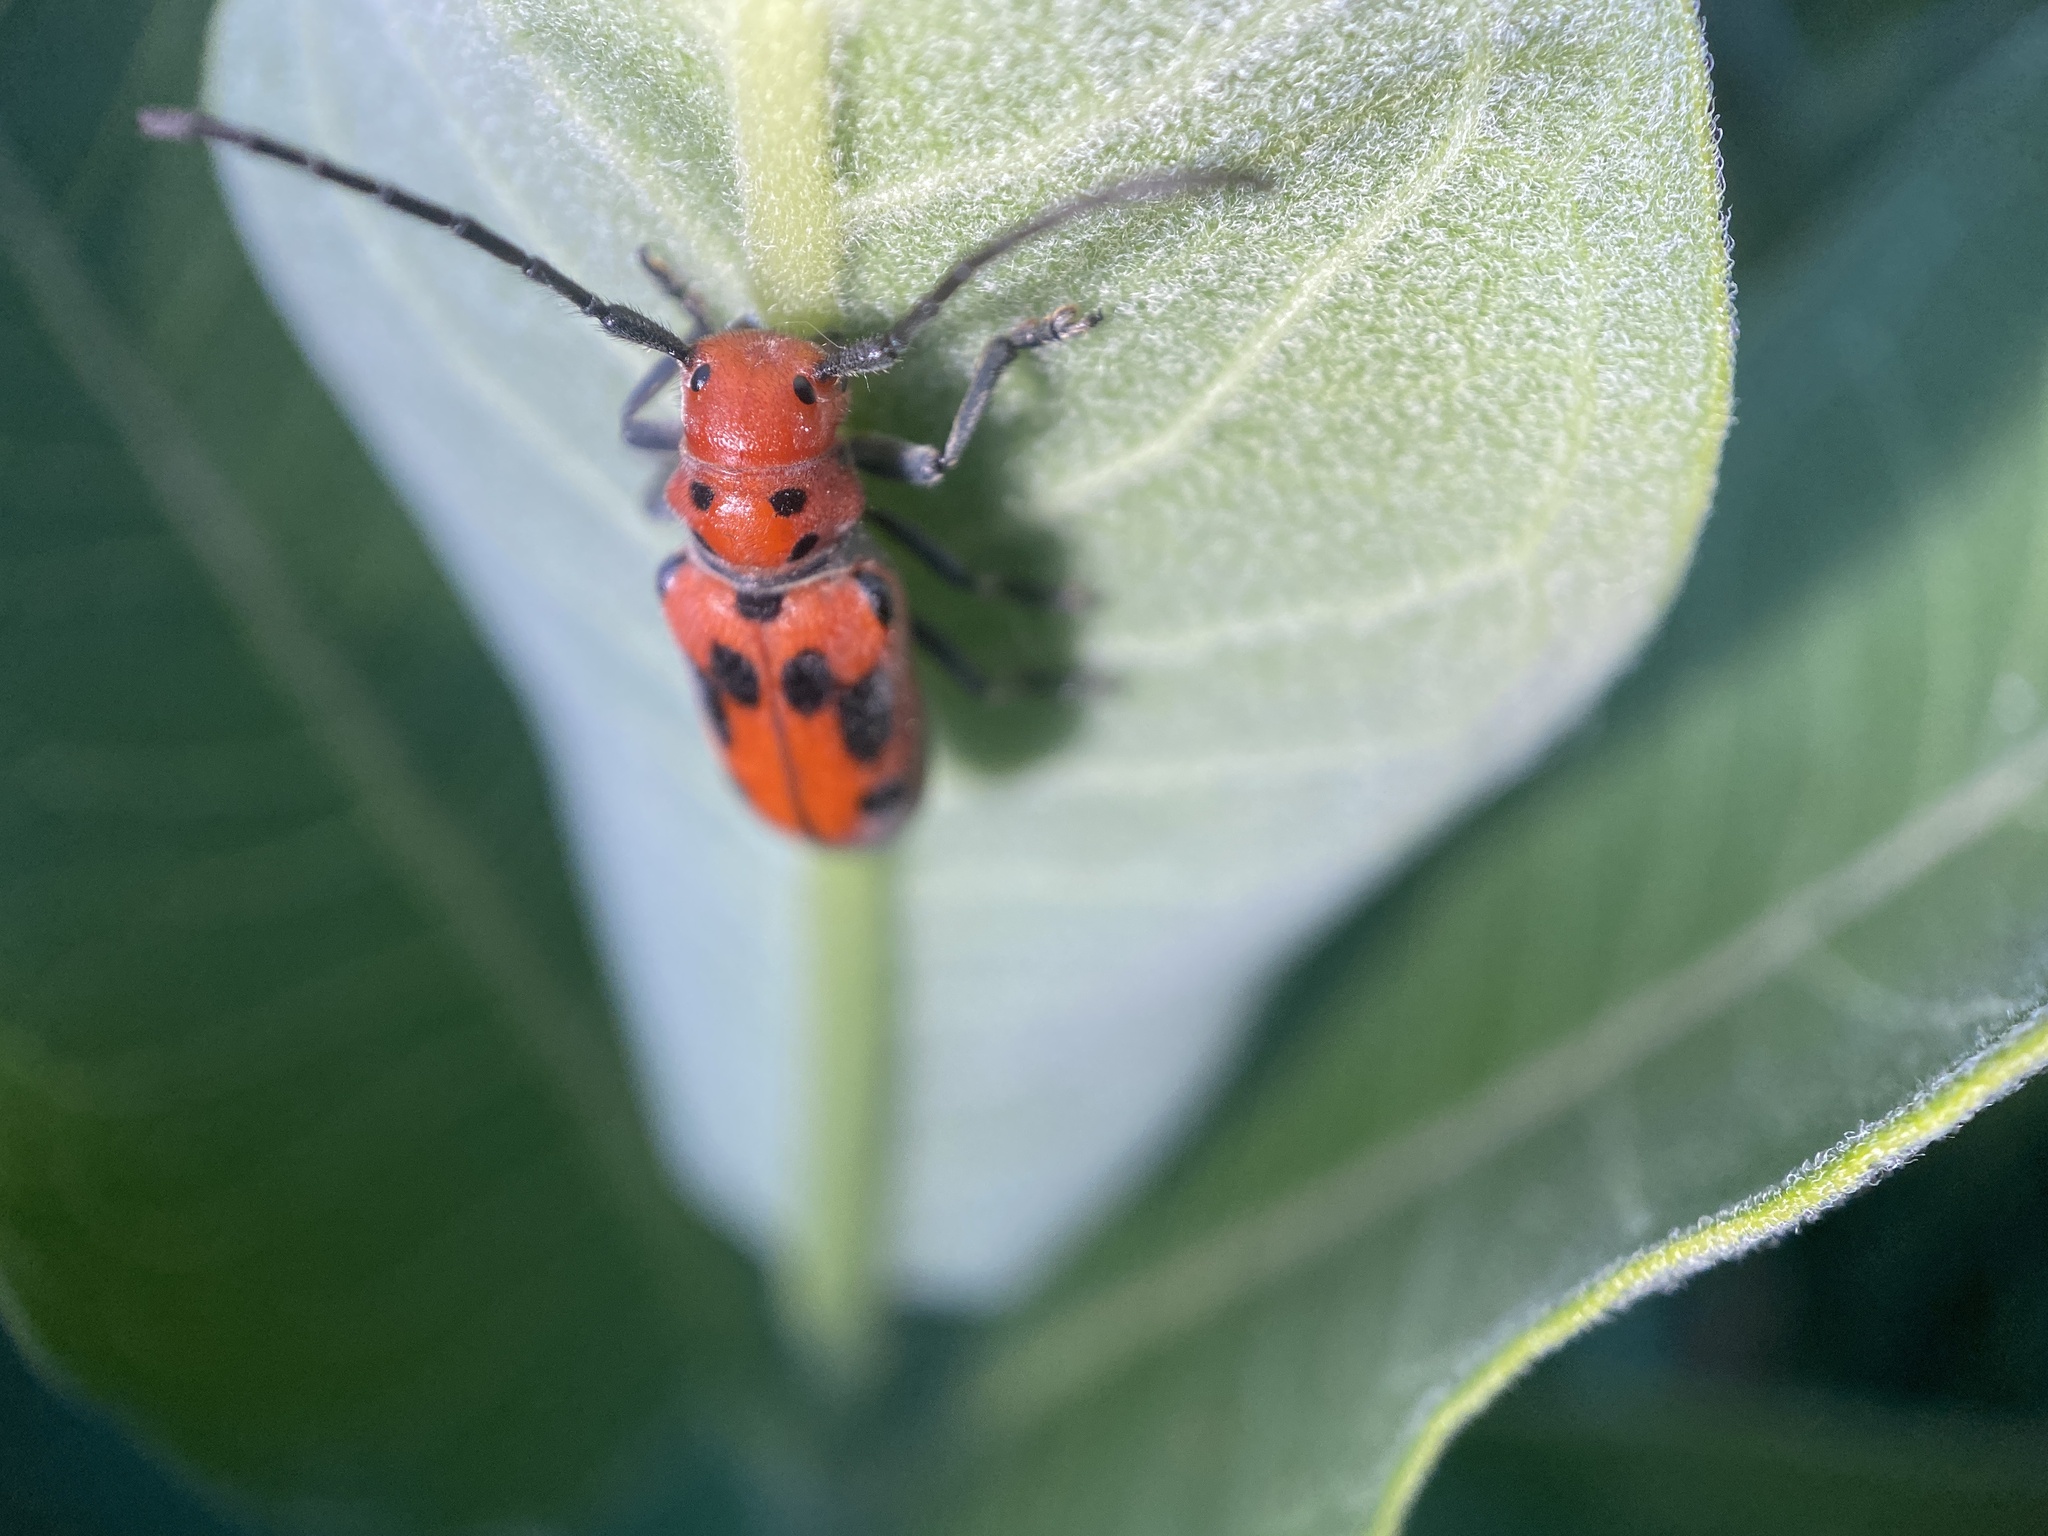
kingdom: Animalia
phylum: Arthropoda
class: Insecta
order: Coleoptera
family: Cerambycidae
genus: Tetraopes
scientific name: Tetraopes tetrophthalmus
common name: Red milkweed beetle
